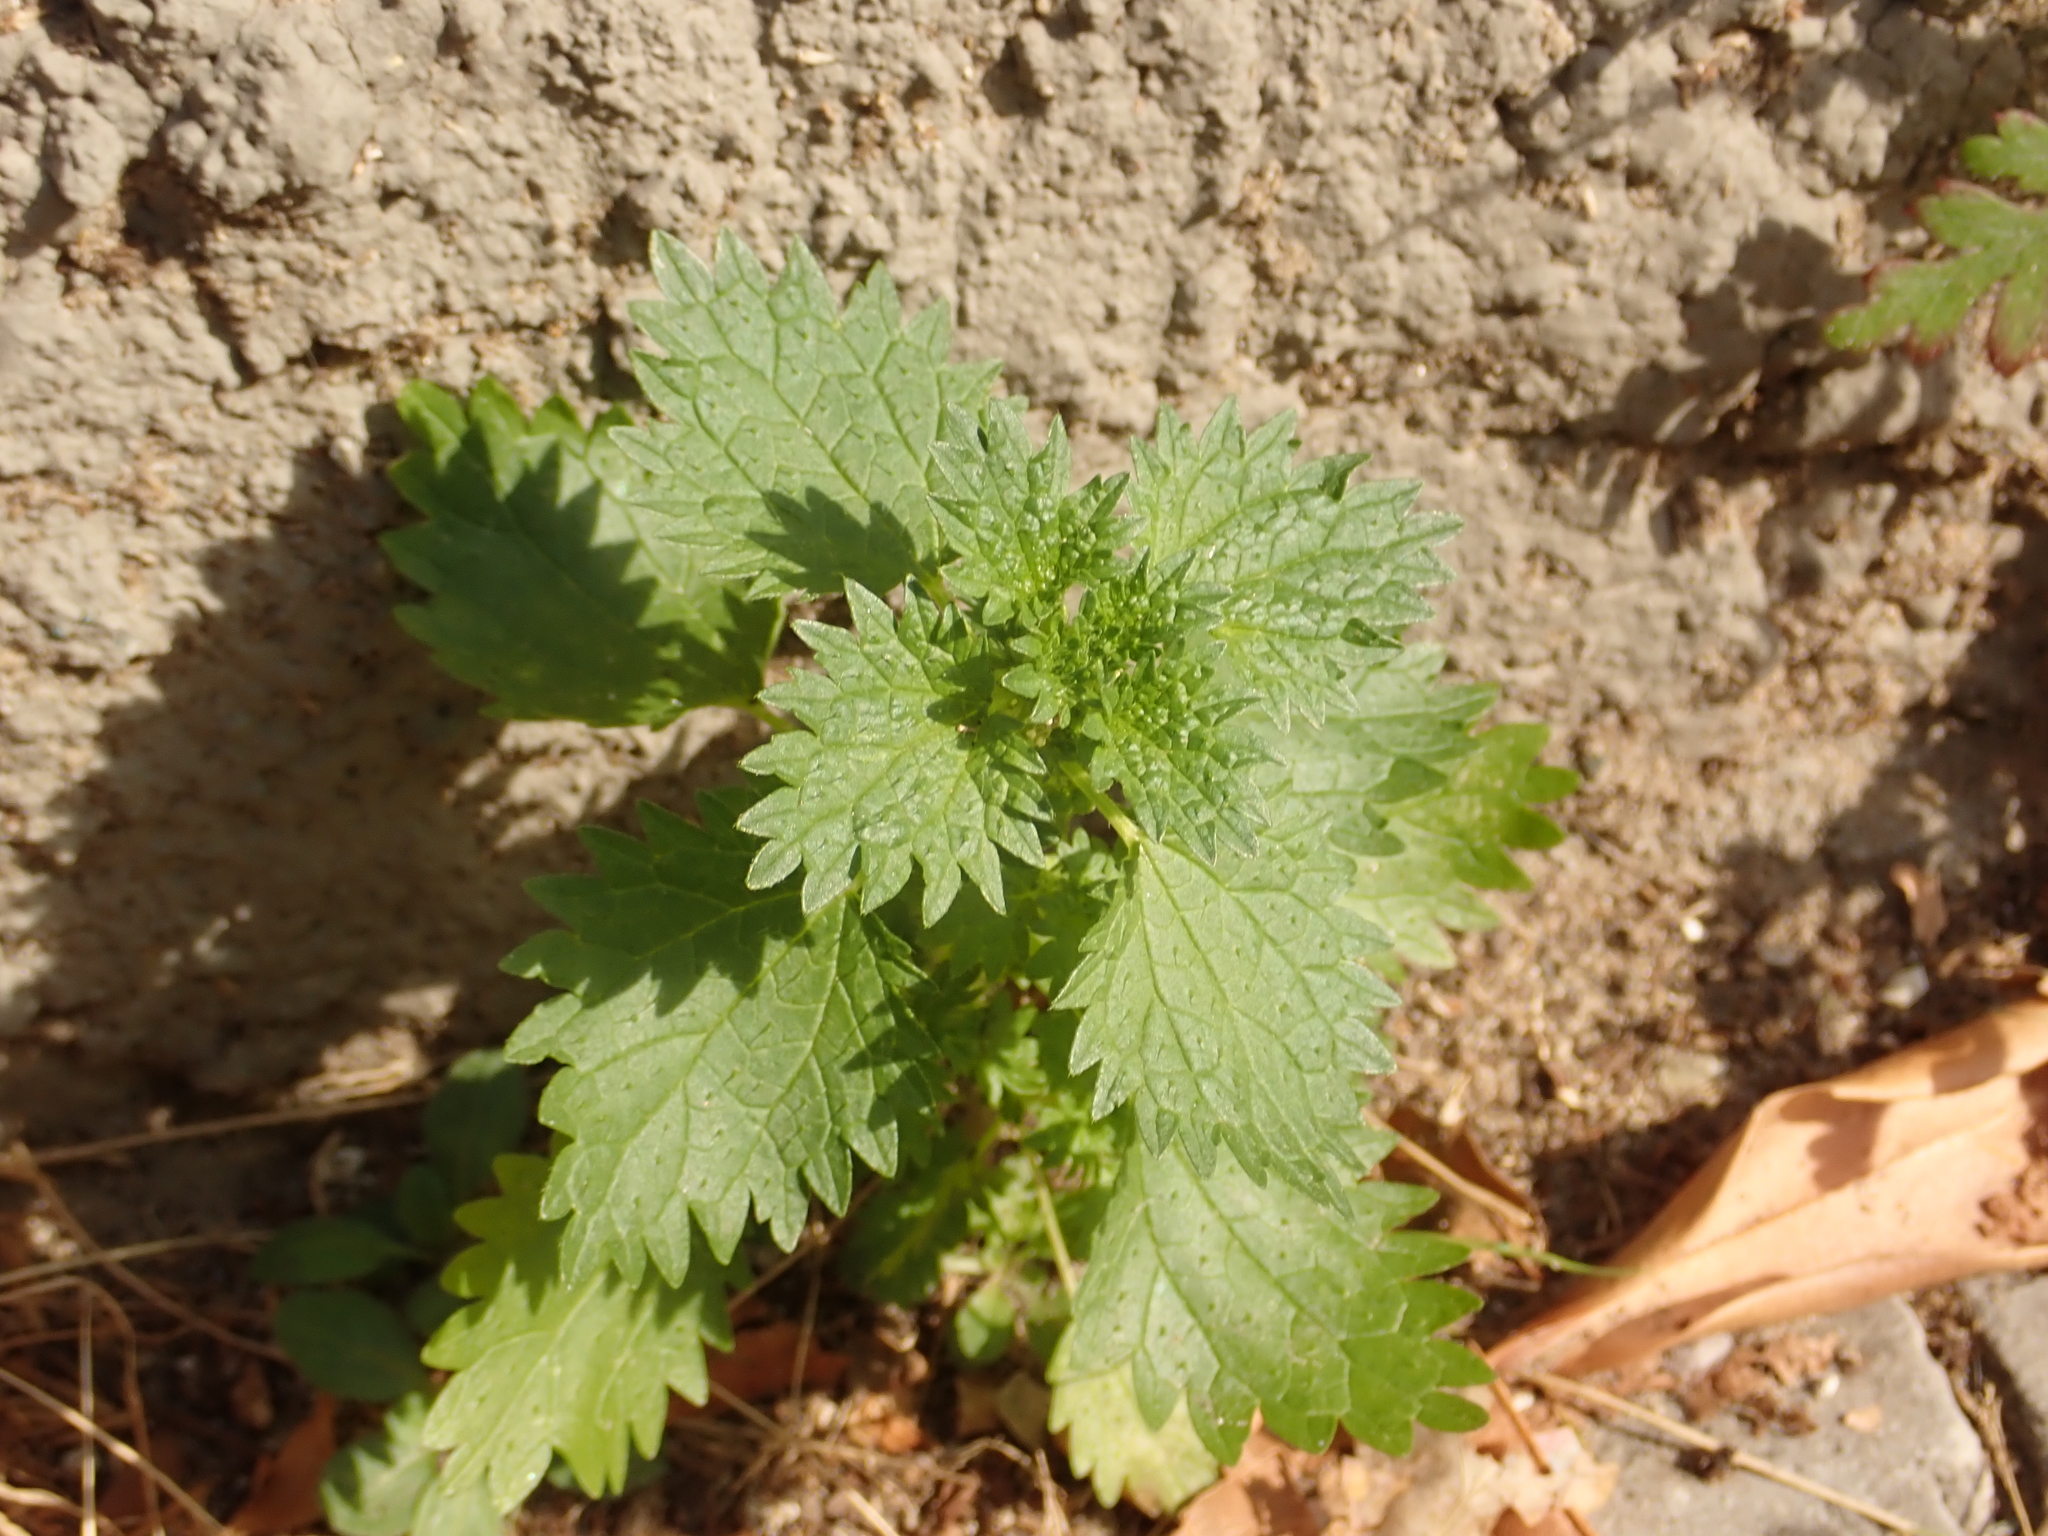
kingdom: Plantae
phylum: Tracheophyta
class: Magnoliopsida
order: Rosales
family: Urticaceae
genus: Urtica
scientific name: Urtica urens
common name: Dwarf nettle
